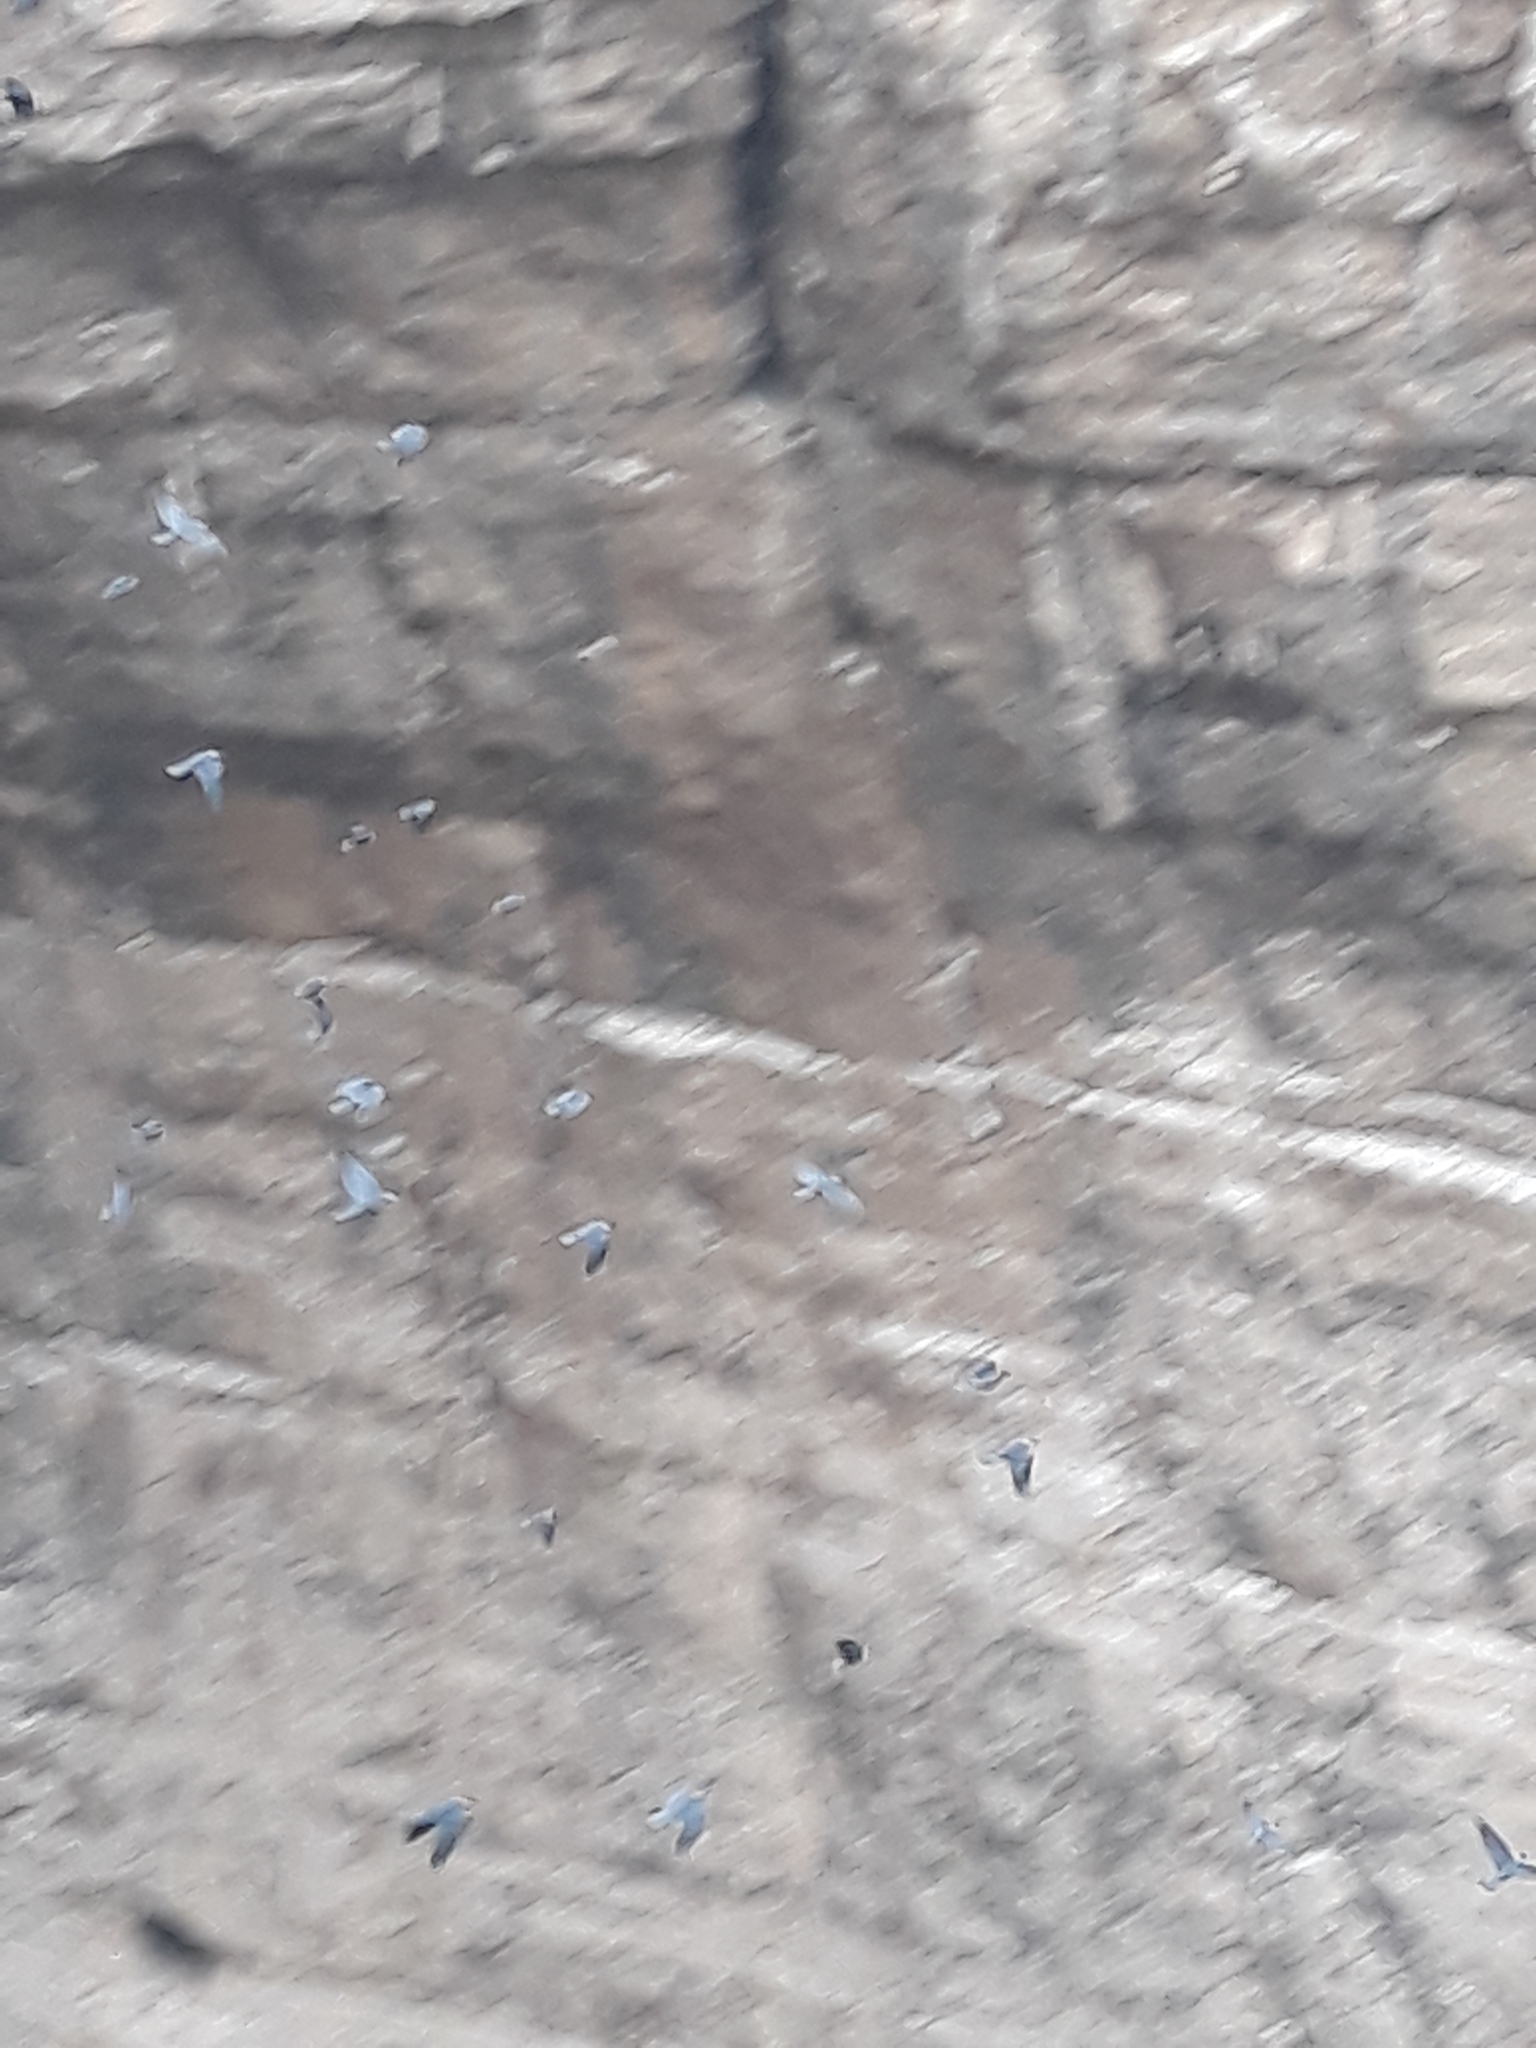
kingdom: Animalia
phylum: Chordata
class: Aves
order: Passeriformes
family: Corvidae
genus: Coloeus
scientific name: Coloeus monedula
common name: Western jackdaw
